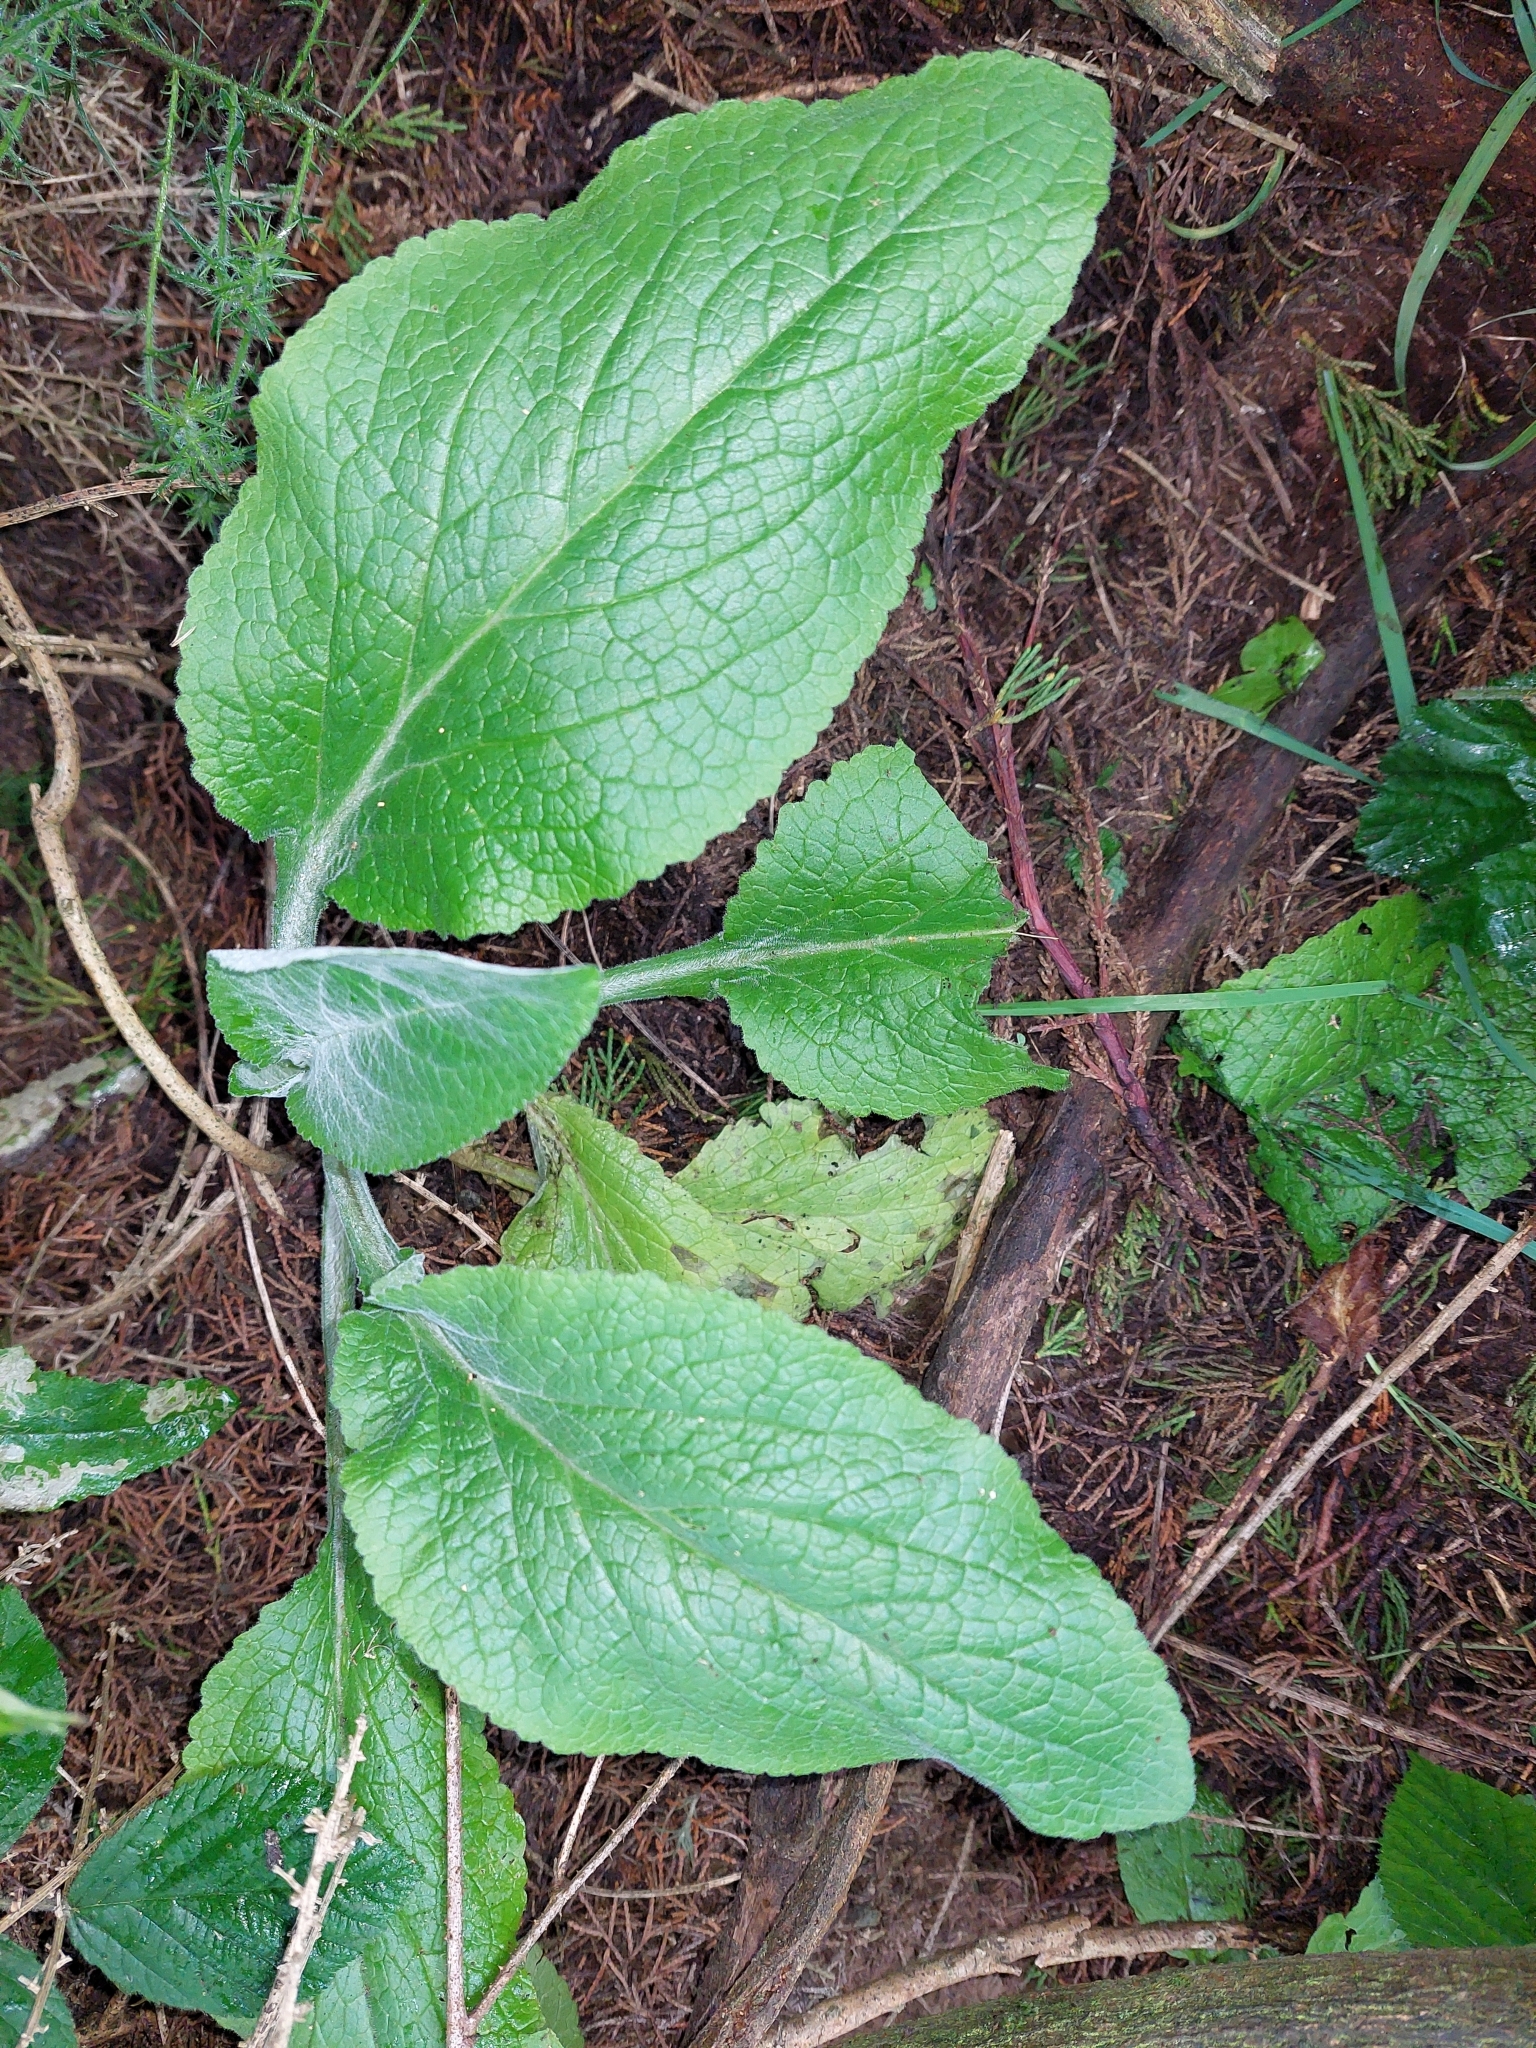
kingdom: Plantae
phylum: Tracheophyta
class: Magnoliopsida
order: Lamiales
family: Plantaginaceae
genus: Digitalis
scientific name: Digitalis purpurea
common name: Foxglove
